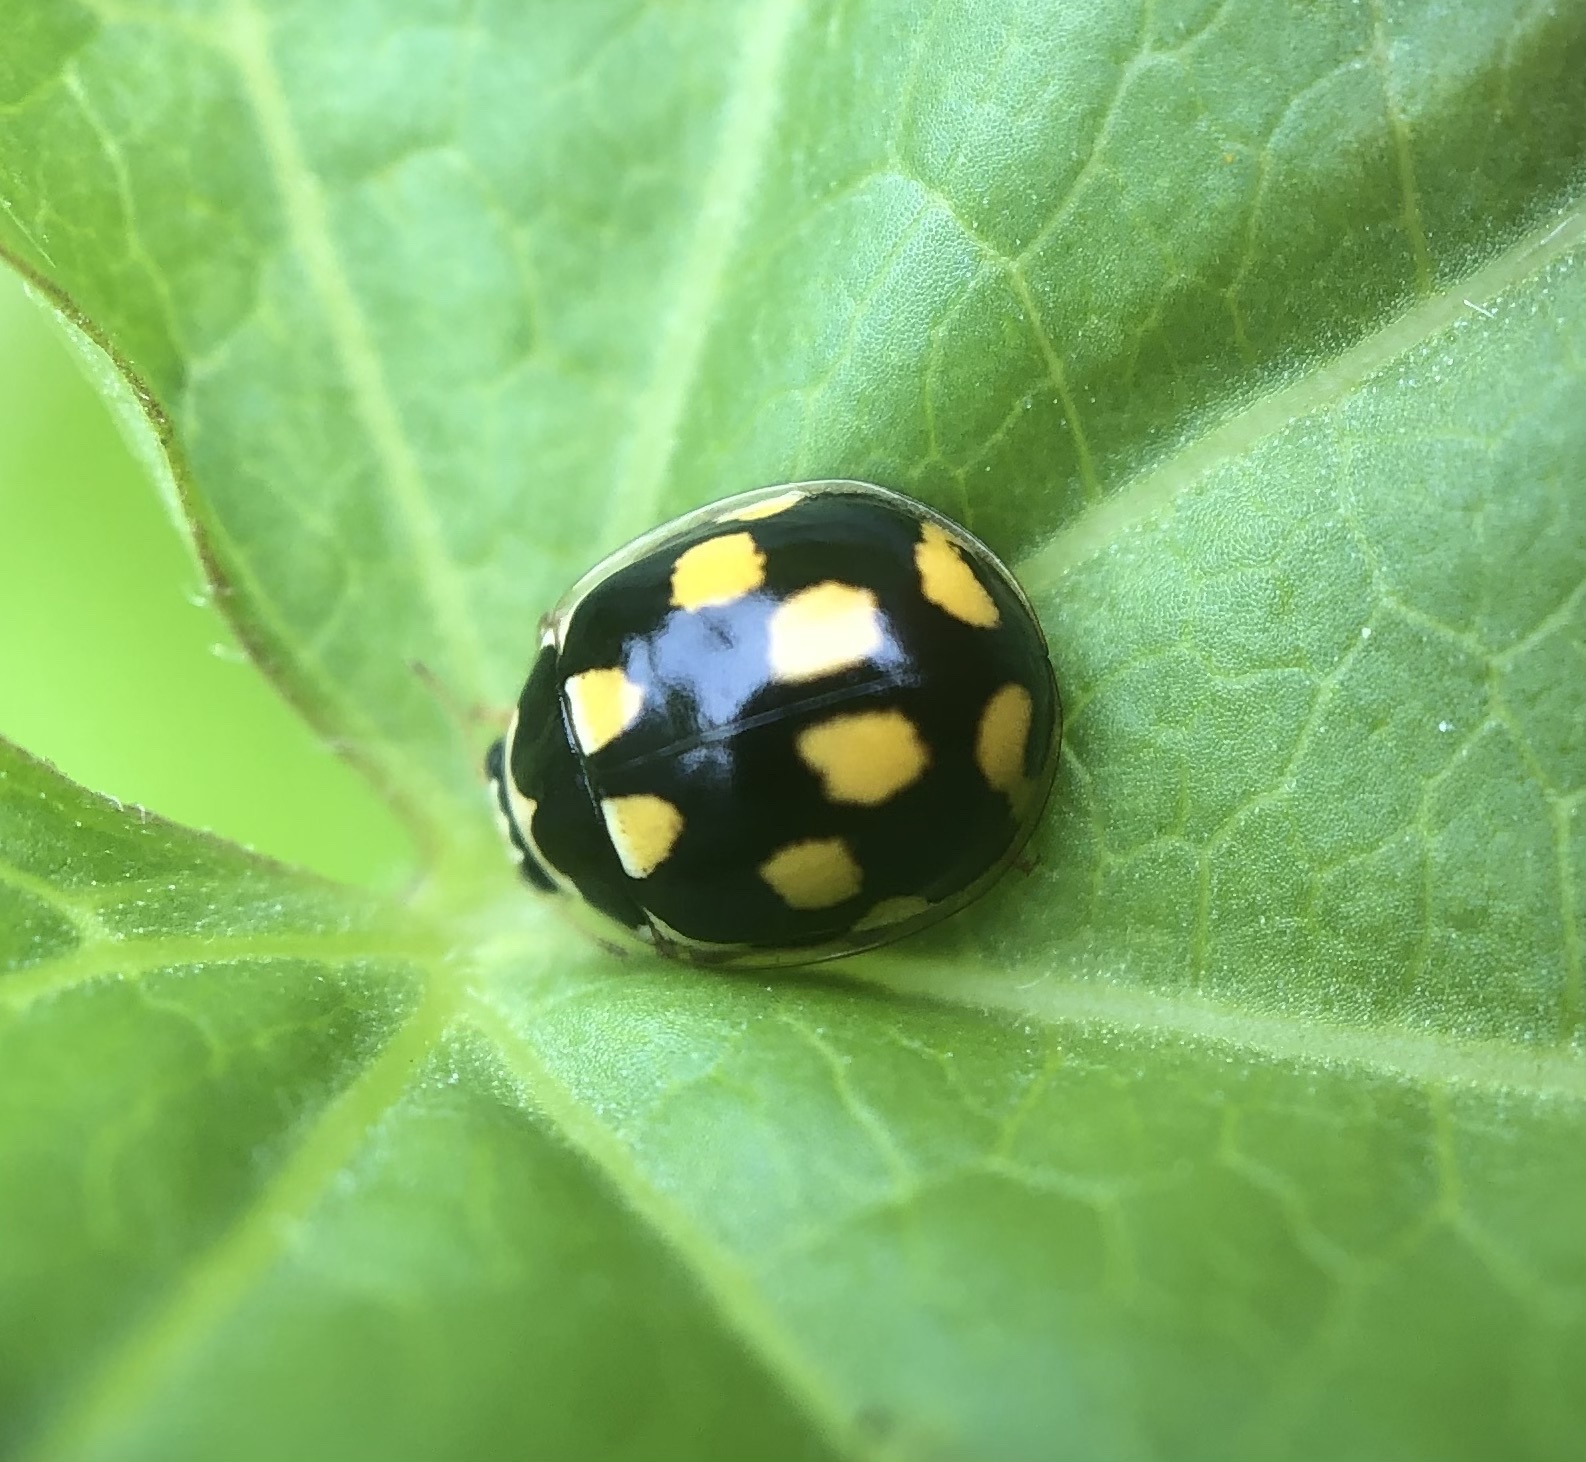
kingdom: Animalia
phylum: Arthropoda
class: Insecta
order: Coleoptera
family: Coccinellidae
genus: Propylaea
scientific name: Propylaea quatuordecimpunctata
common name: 14-spotted ladybird beetle
